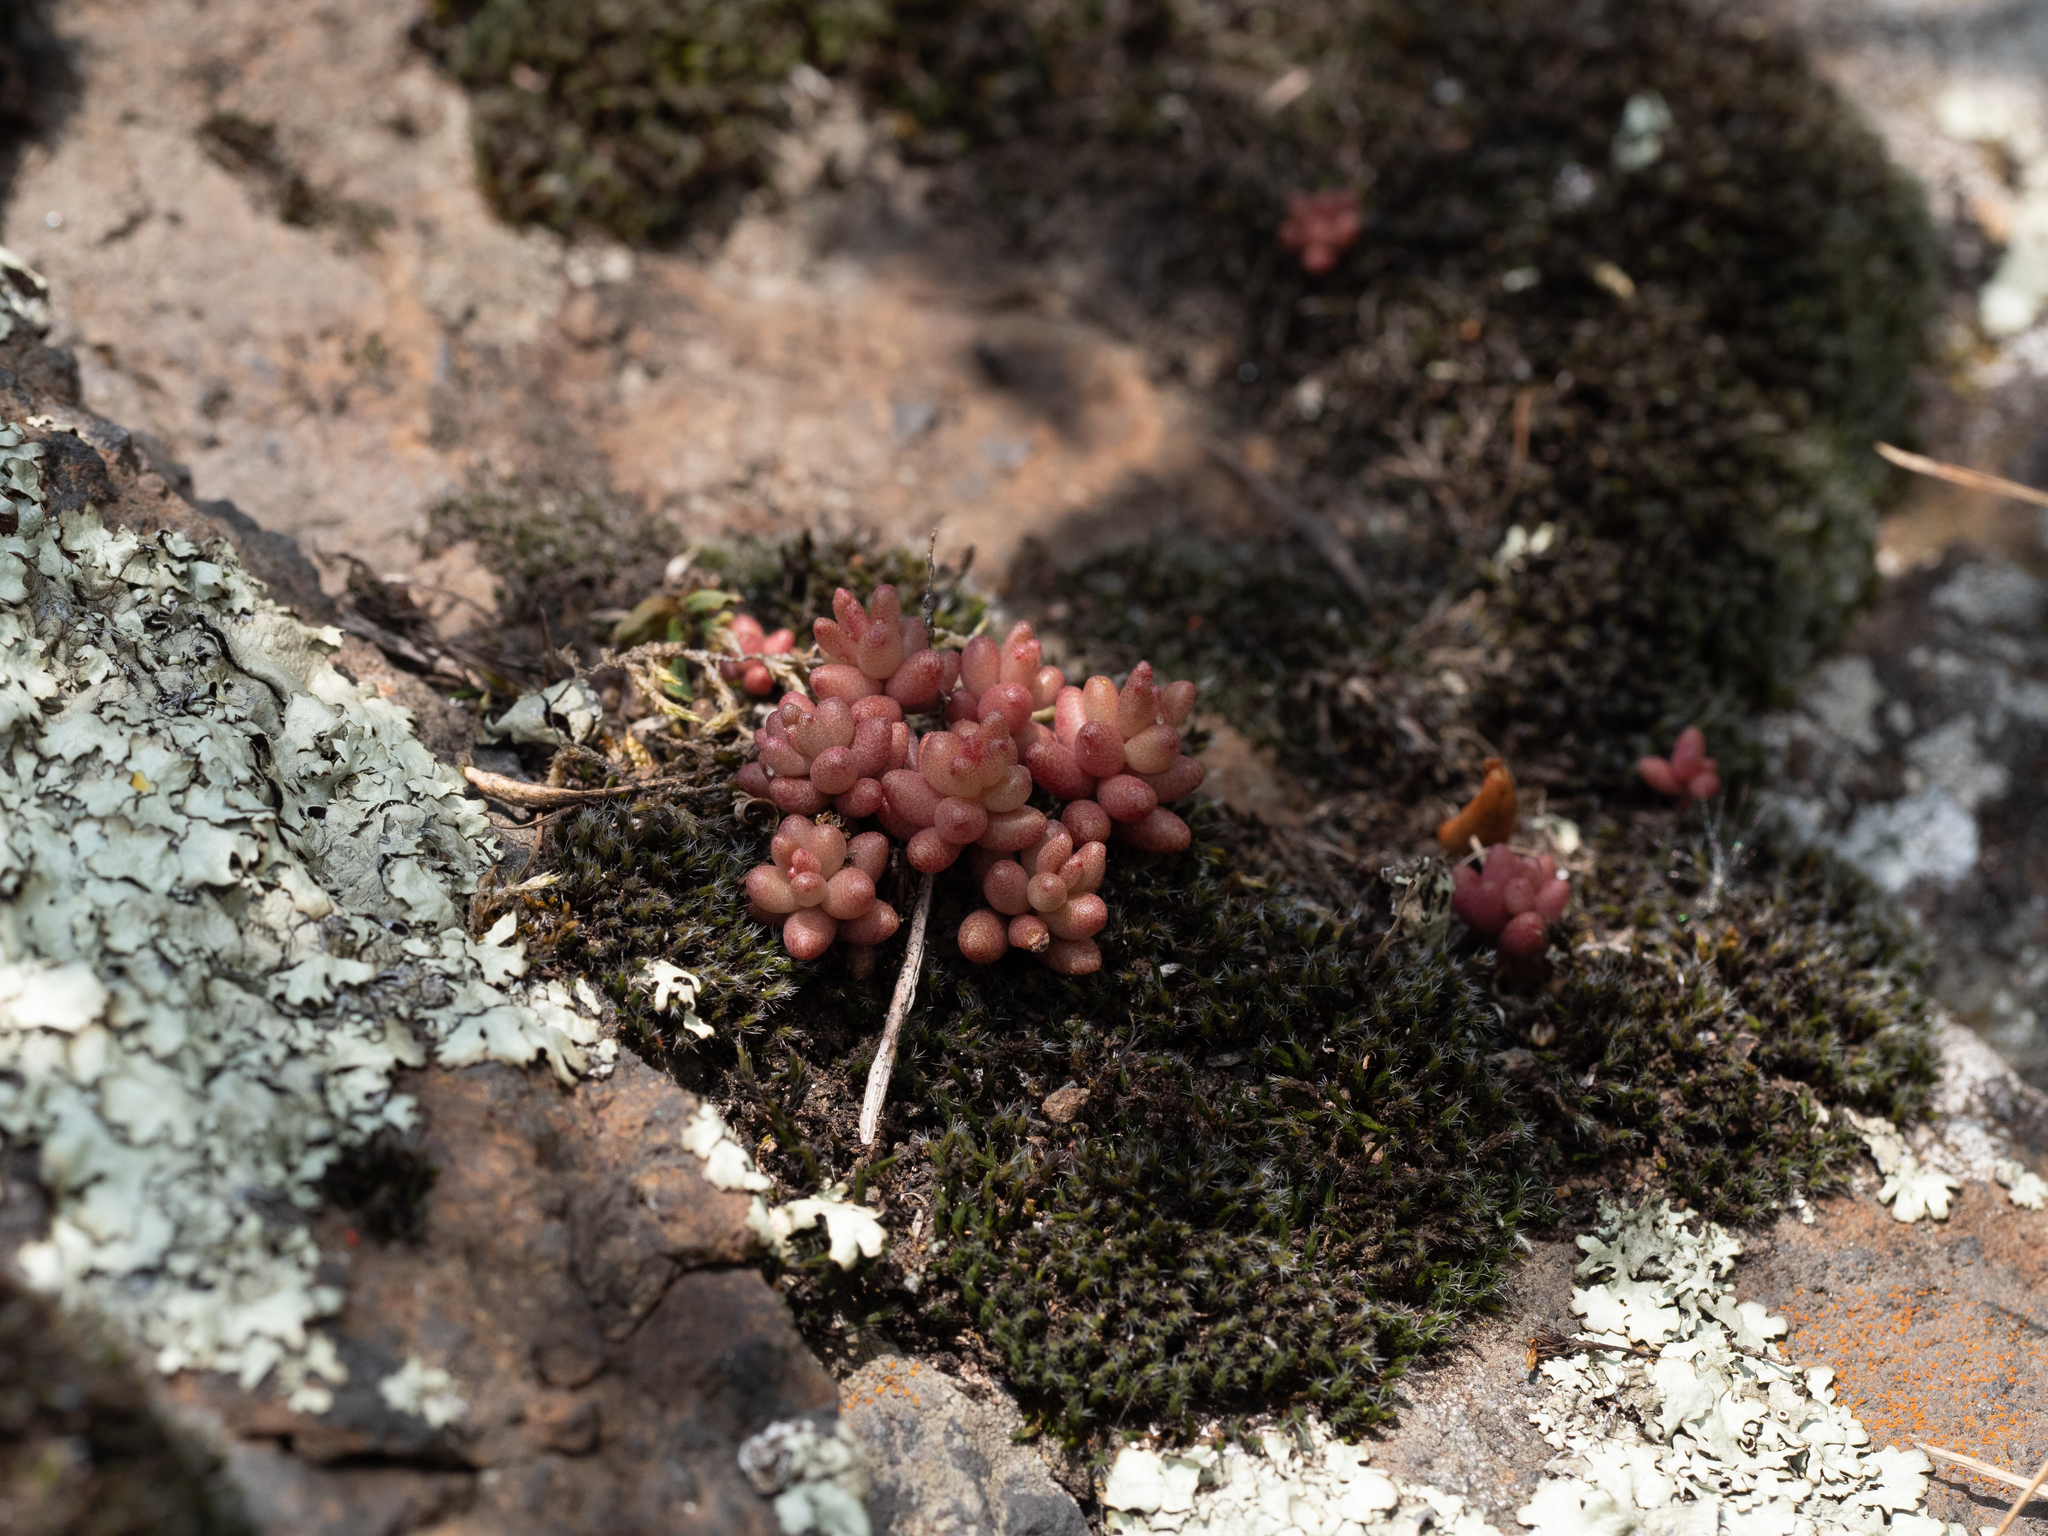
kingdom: Plantae
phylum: Tracheophyta
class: Magnoliopsida
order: Saxifragales
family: Crassulaceae
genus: Sedum
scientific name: Sedum album
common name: White stonecrop
